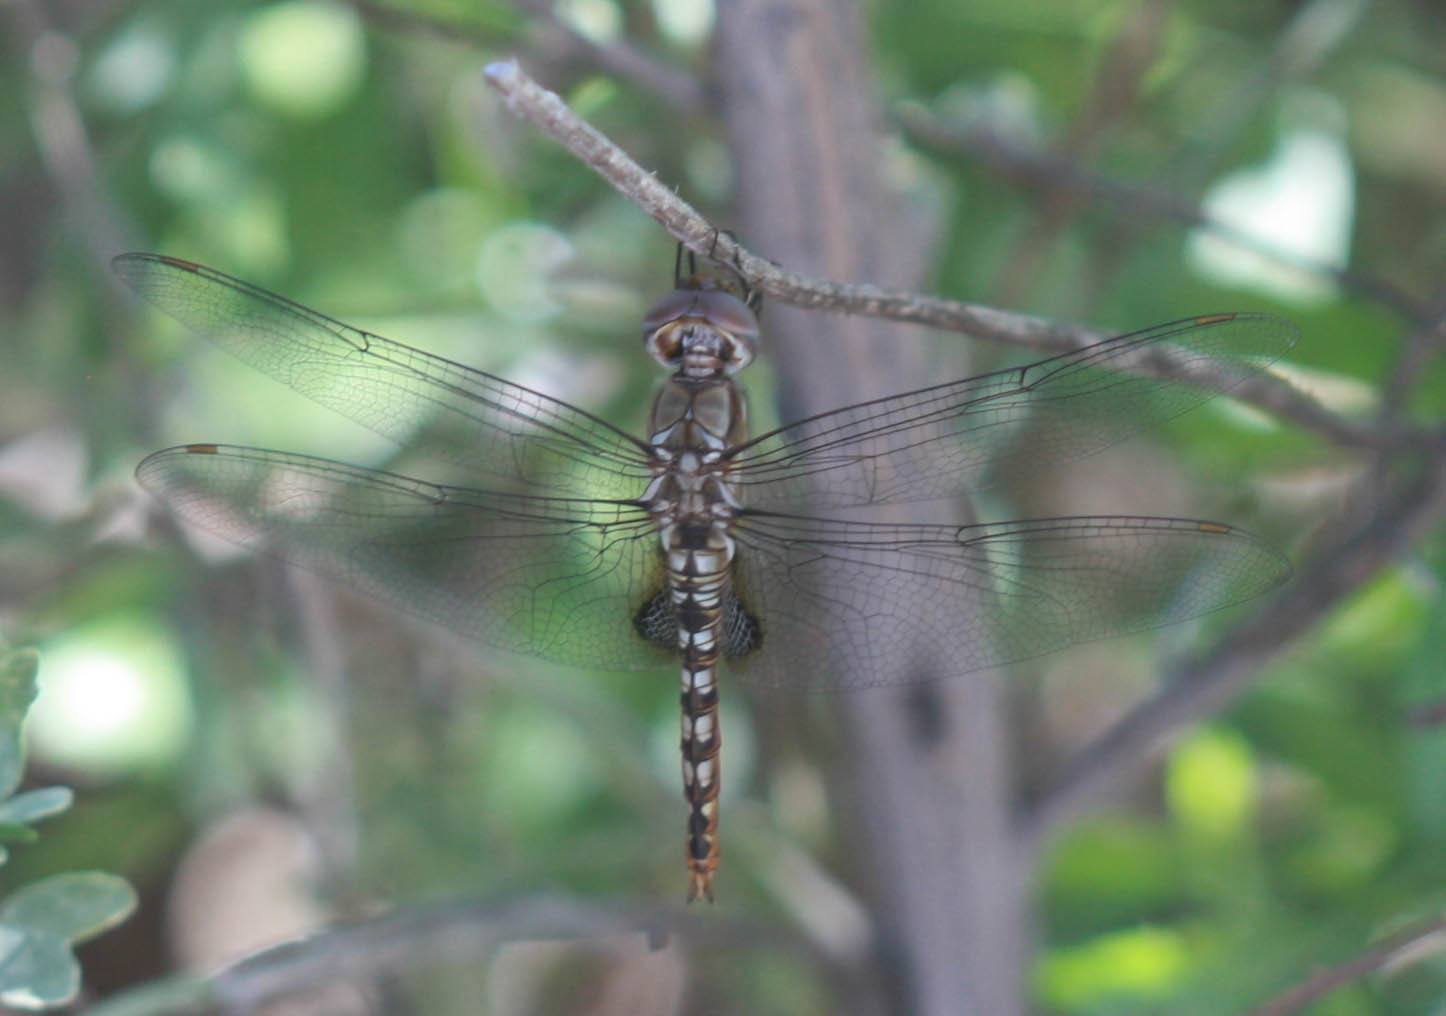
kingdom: Animalia
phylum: Arthropoda
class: Insecta
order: Odonata
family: Libellulidae
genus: Pantala
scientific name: Pantala hymenaea
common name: Spot-winged glider
